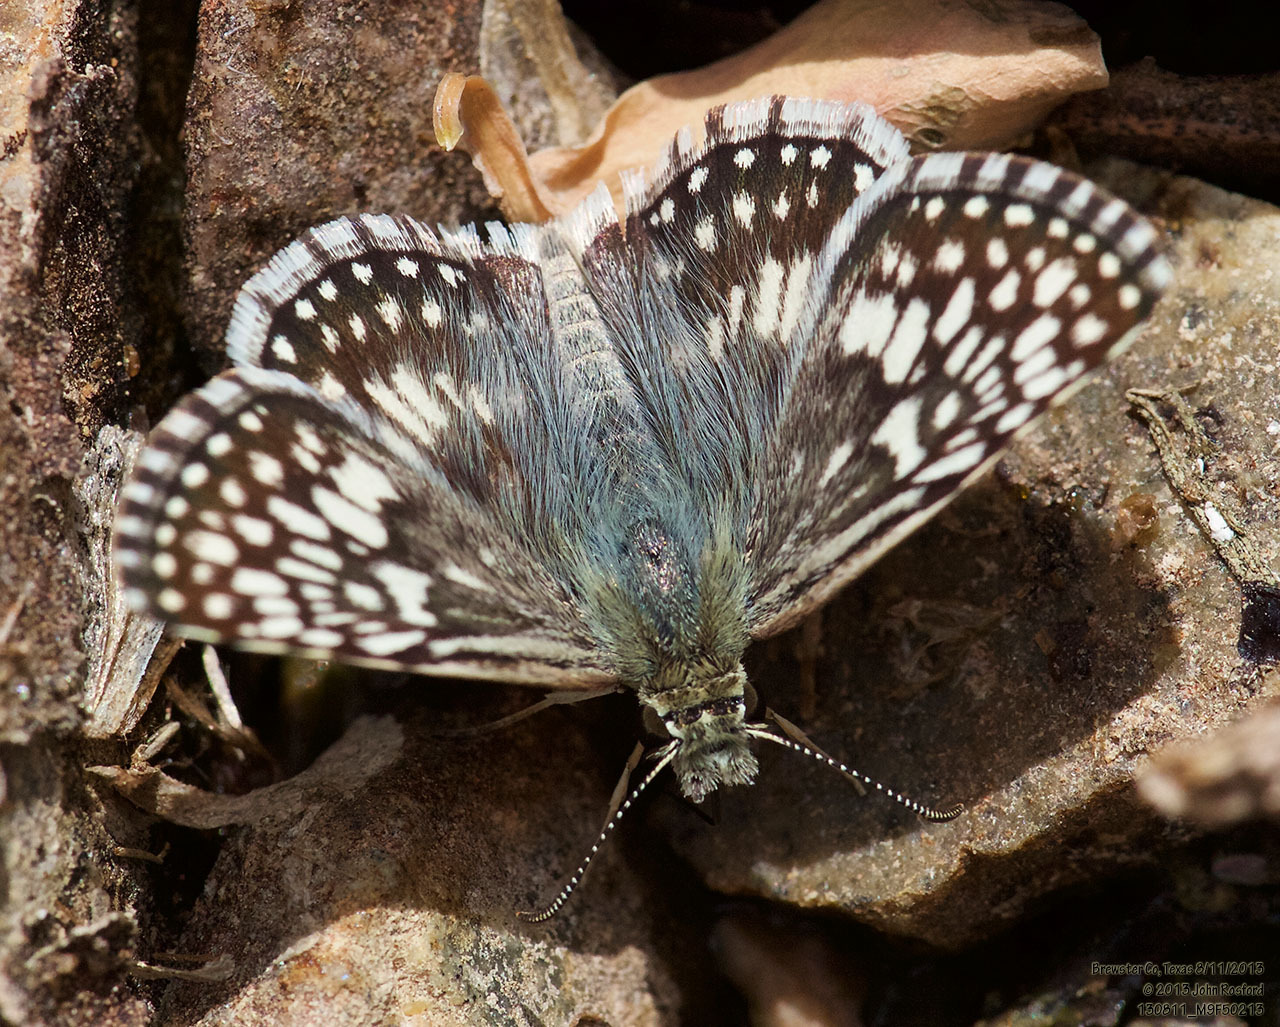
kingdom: Animalia
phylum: Arthropoda
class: Insecta
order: Lepidoptera
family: Hesperiidae
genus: Burnsius
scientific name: Burnsius philetas
